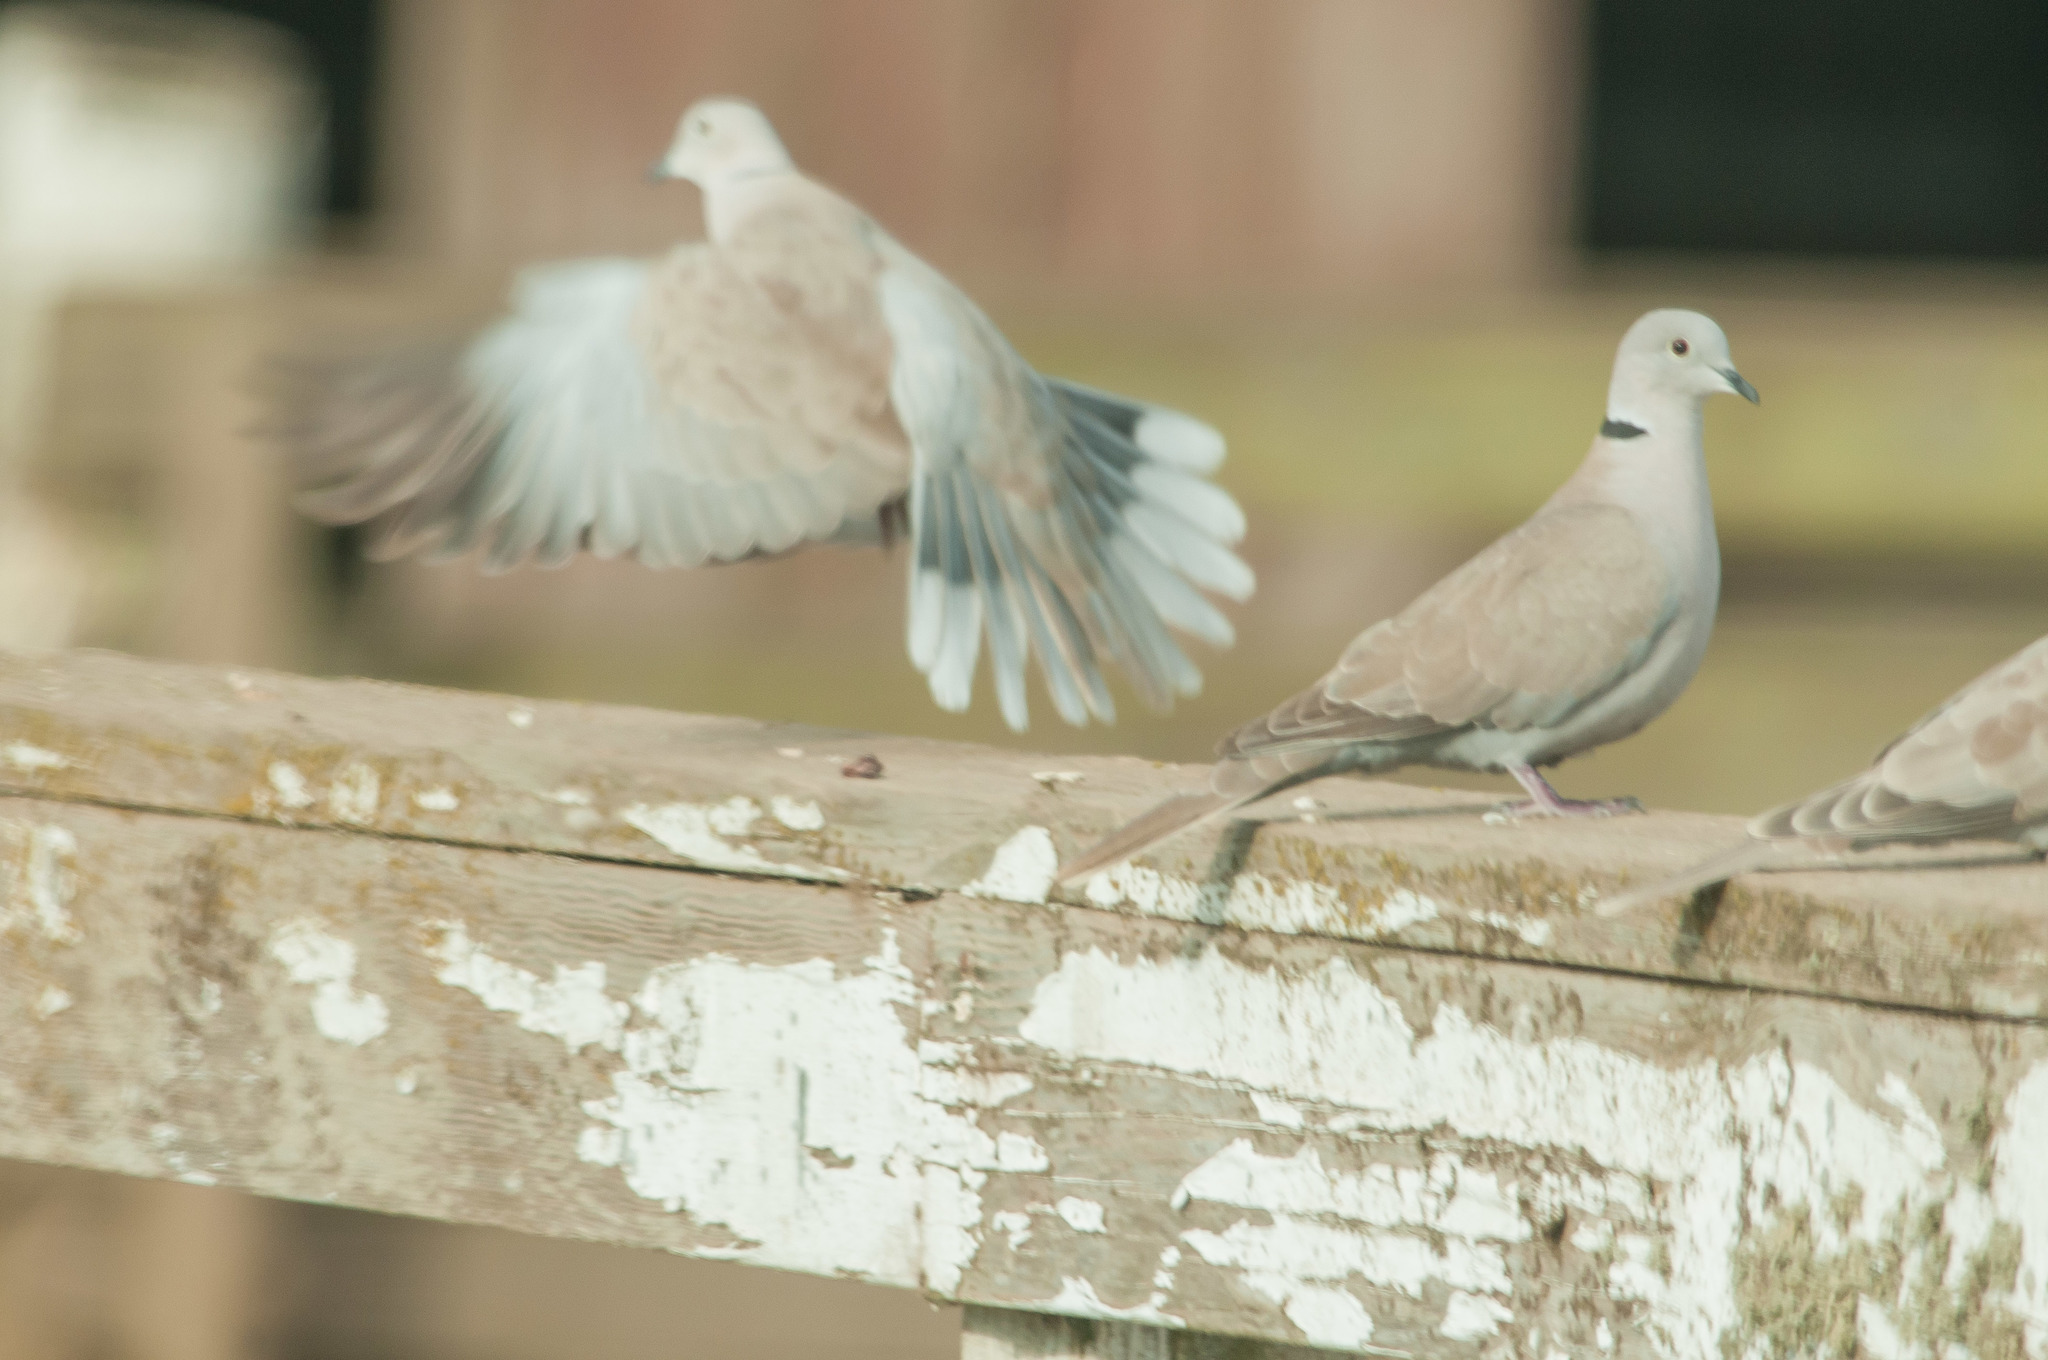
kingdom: Animalia
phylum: Chordata
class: Aves
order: Columbiformes
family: Columbidae
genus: Streptopelia
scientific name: Streptopelia decaocto
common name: Eurasian collared dove
